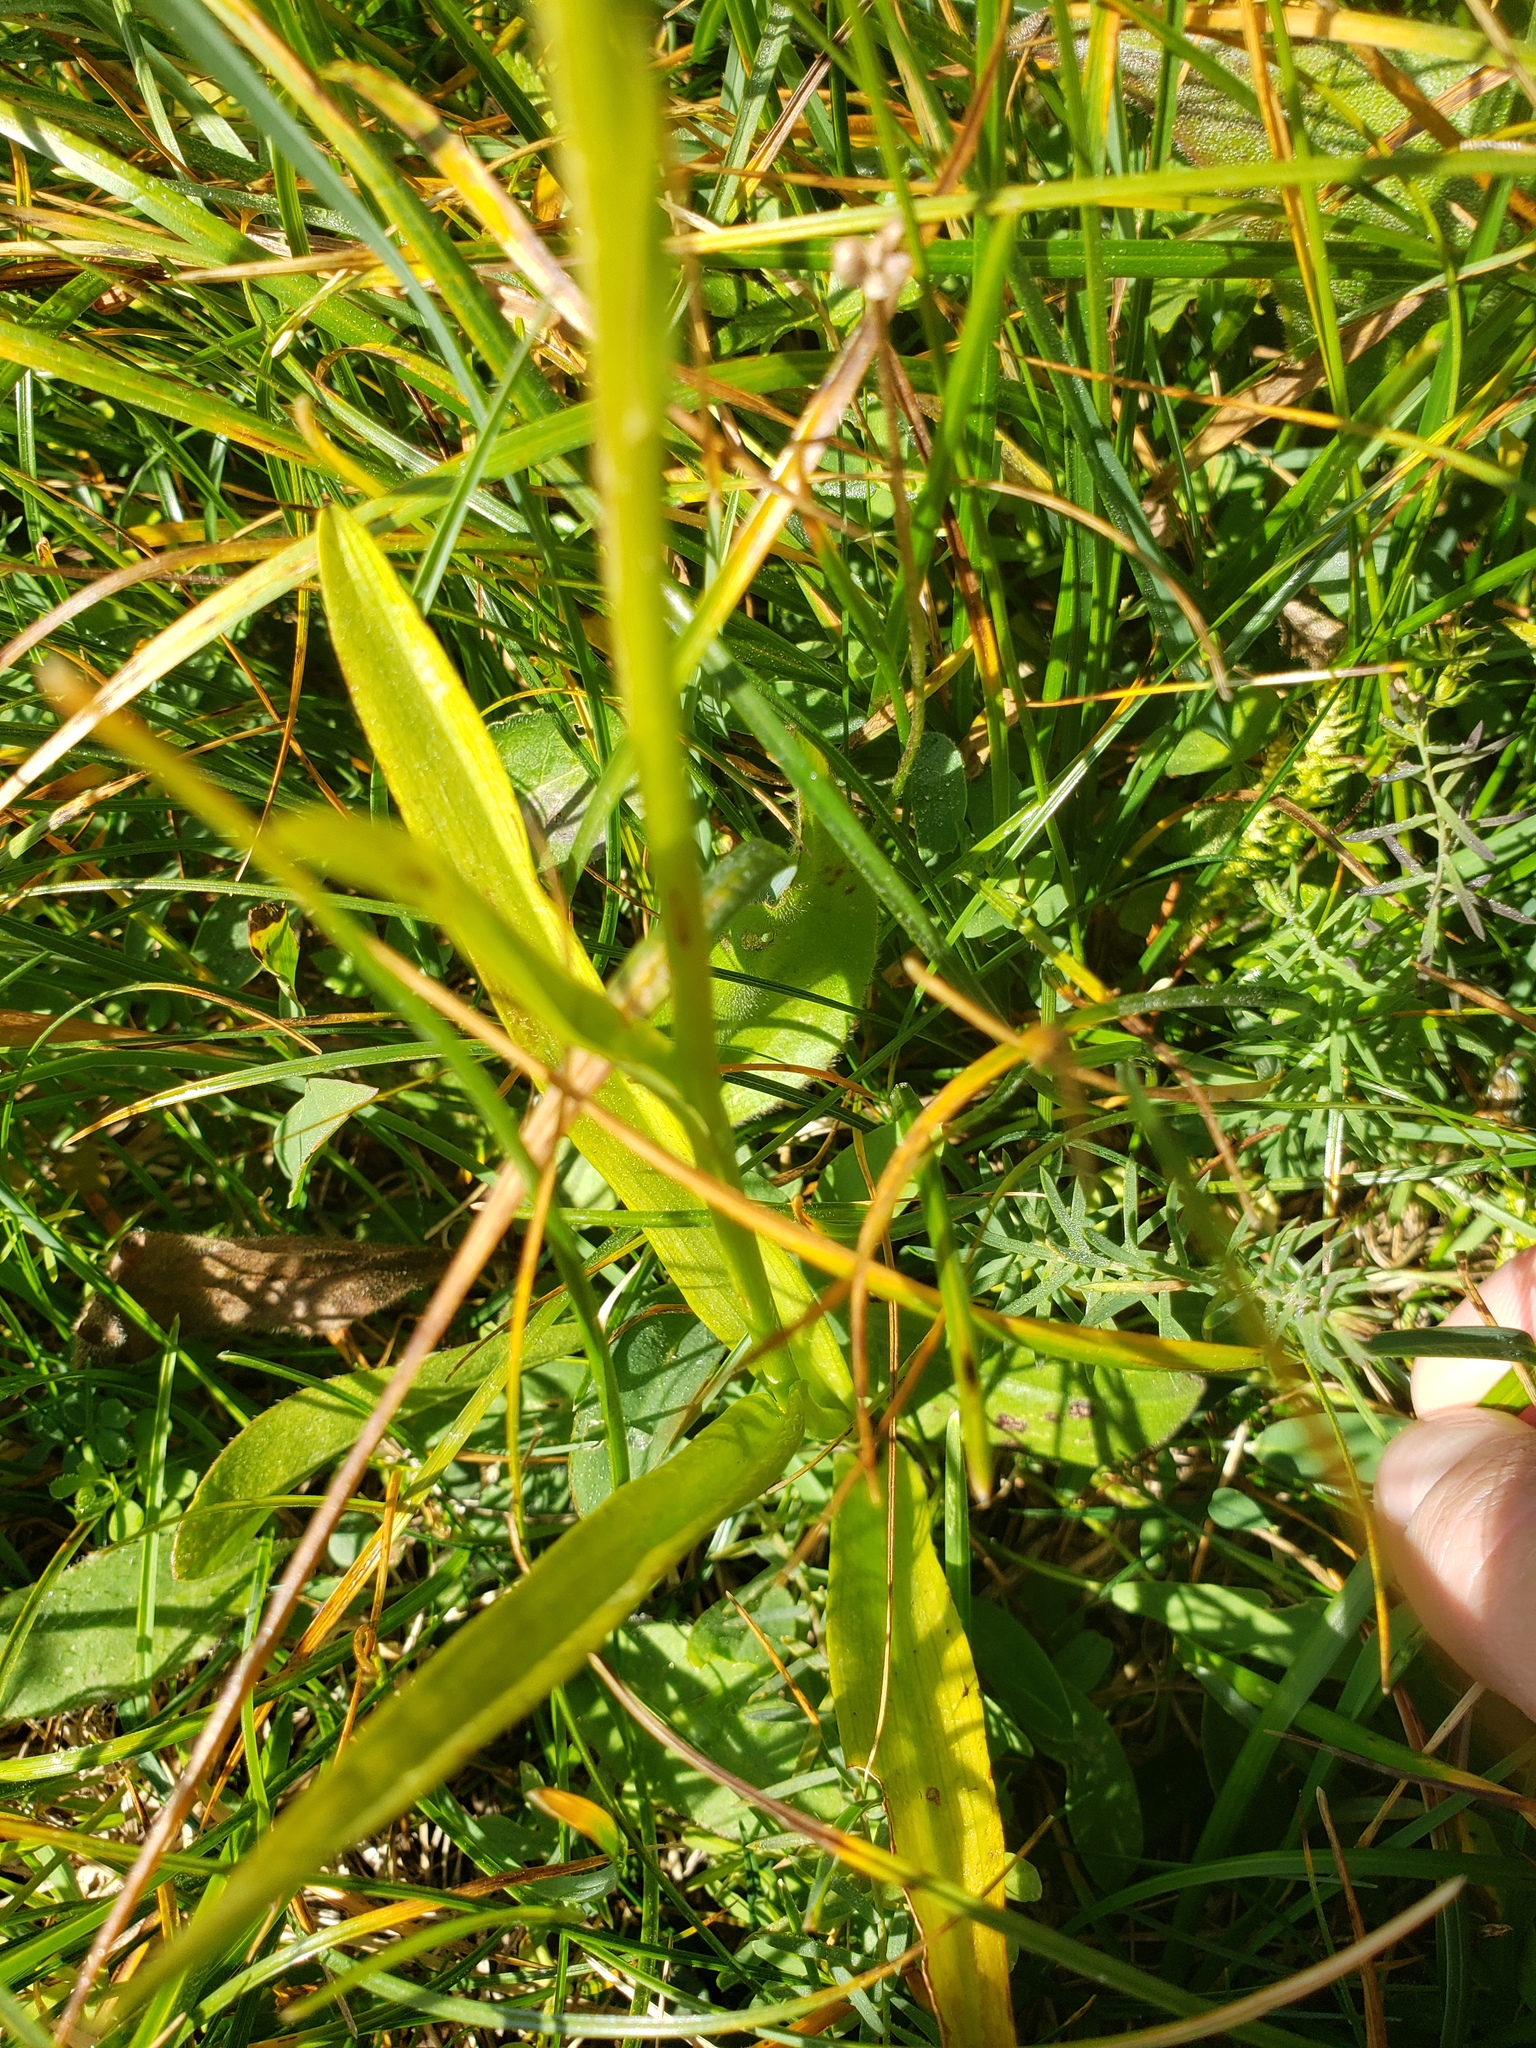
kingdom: Plantae
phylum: Tracheophyta
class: Liliopsida
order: Asparagales
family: Orchidaceae
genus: Gymnadenia
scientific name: Gymnadenia conopsea
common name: Fragrant orchid
